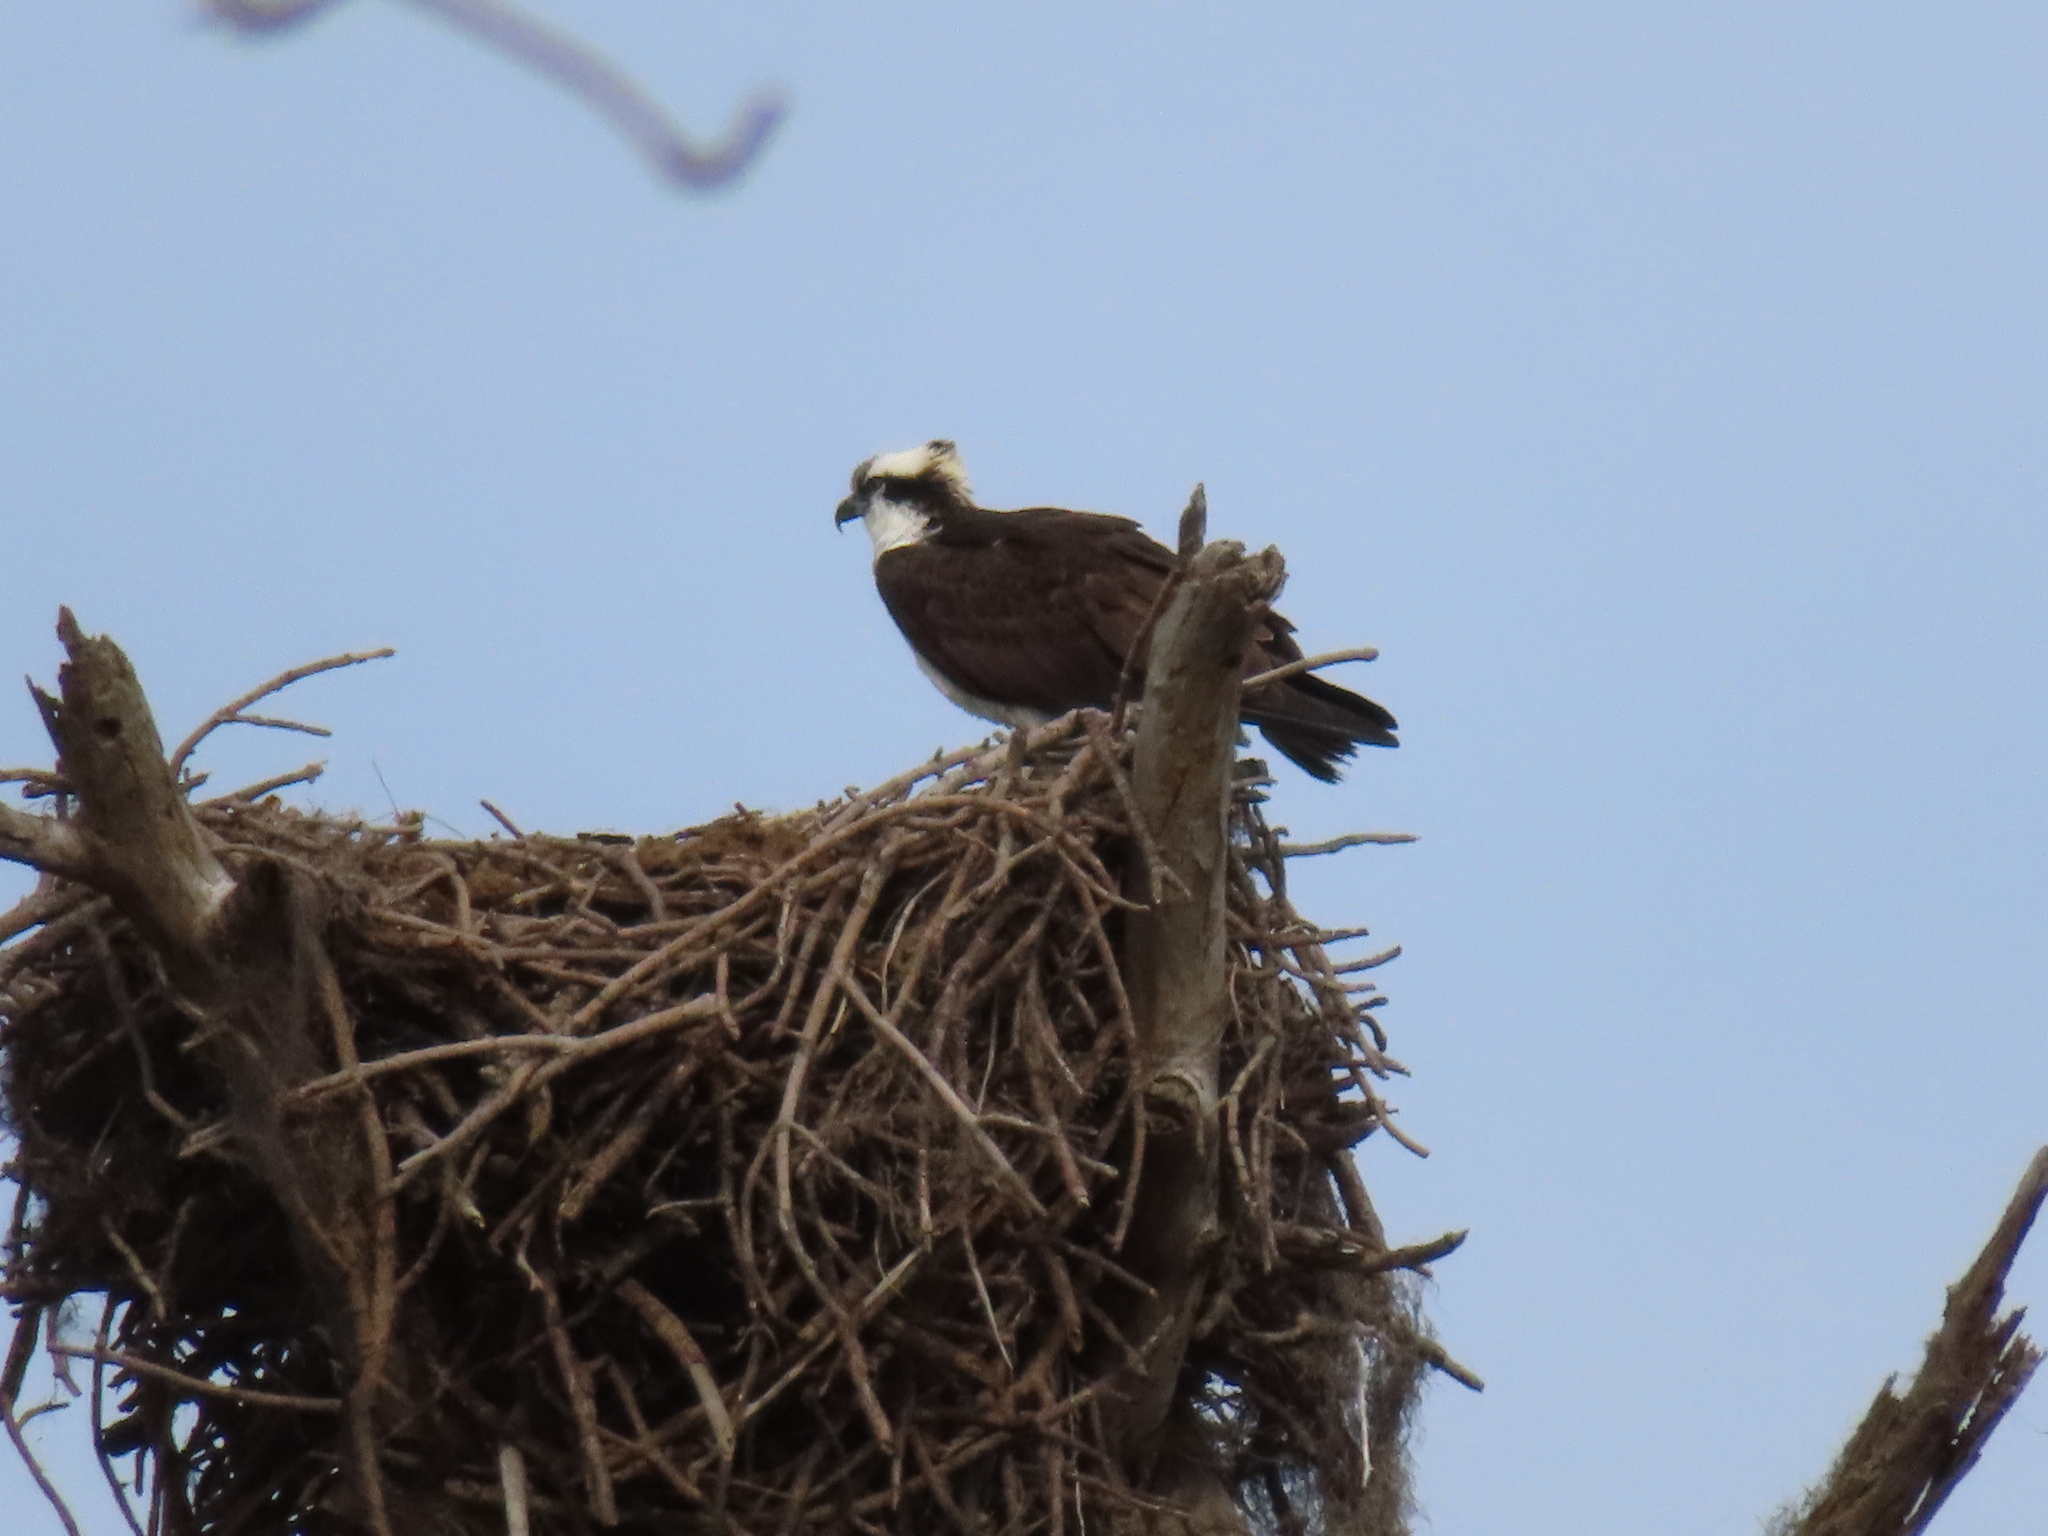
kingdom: Animalia
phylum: Chordata
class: Aves
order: Accipitriformes
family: Pandionidae
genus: Pandion
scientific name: Pandion haliaetus
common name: Osprey
